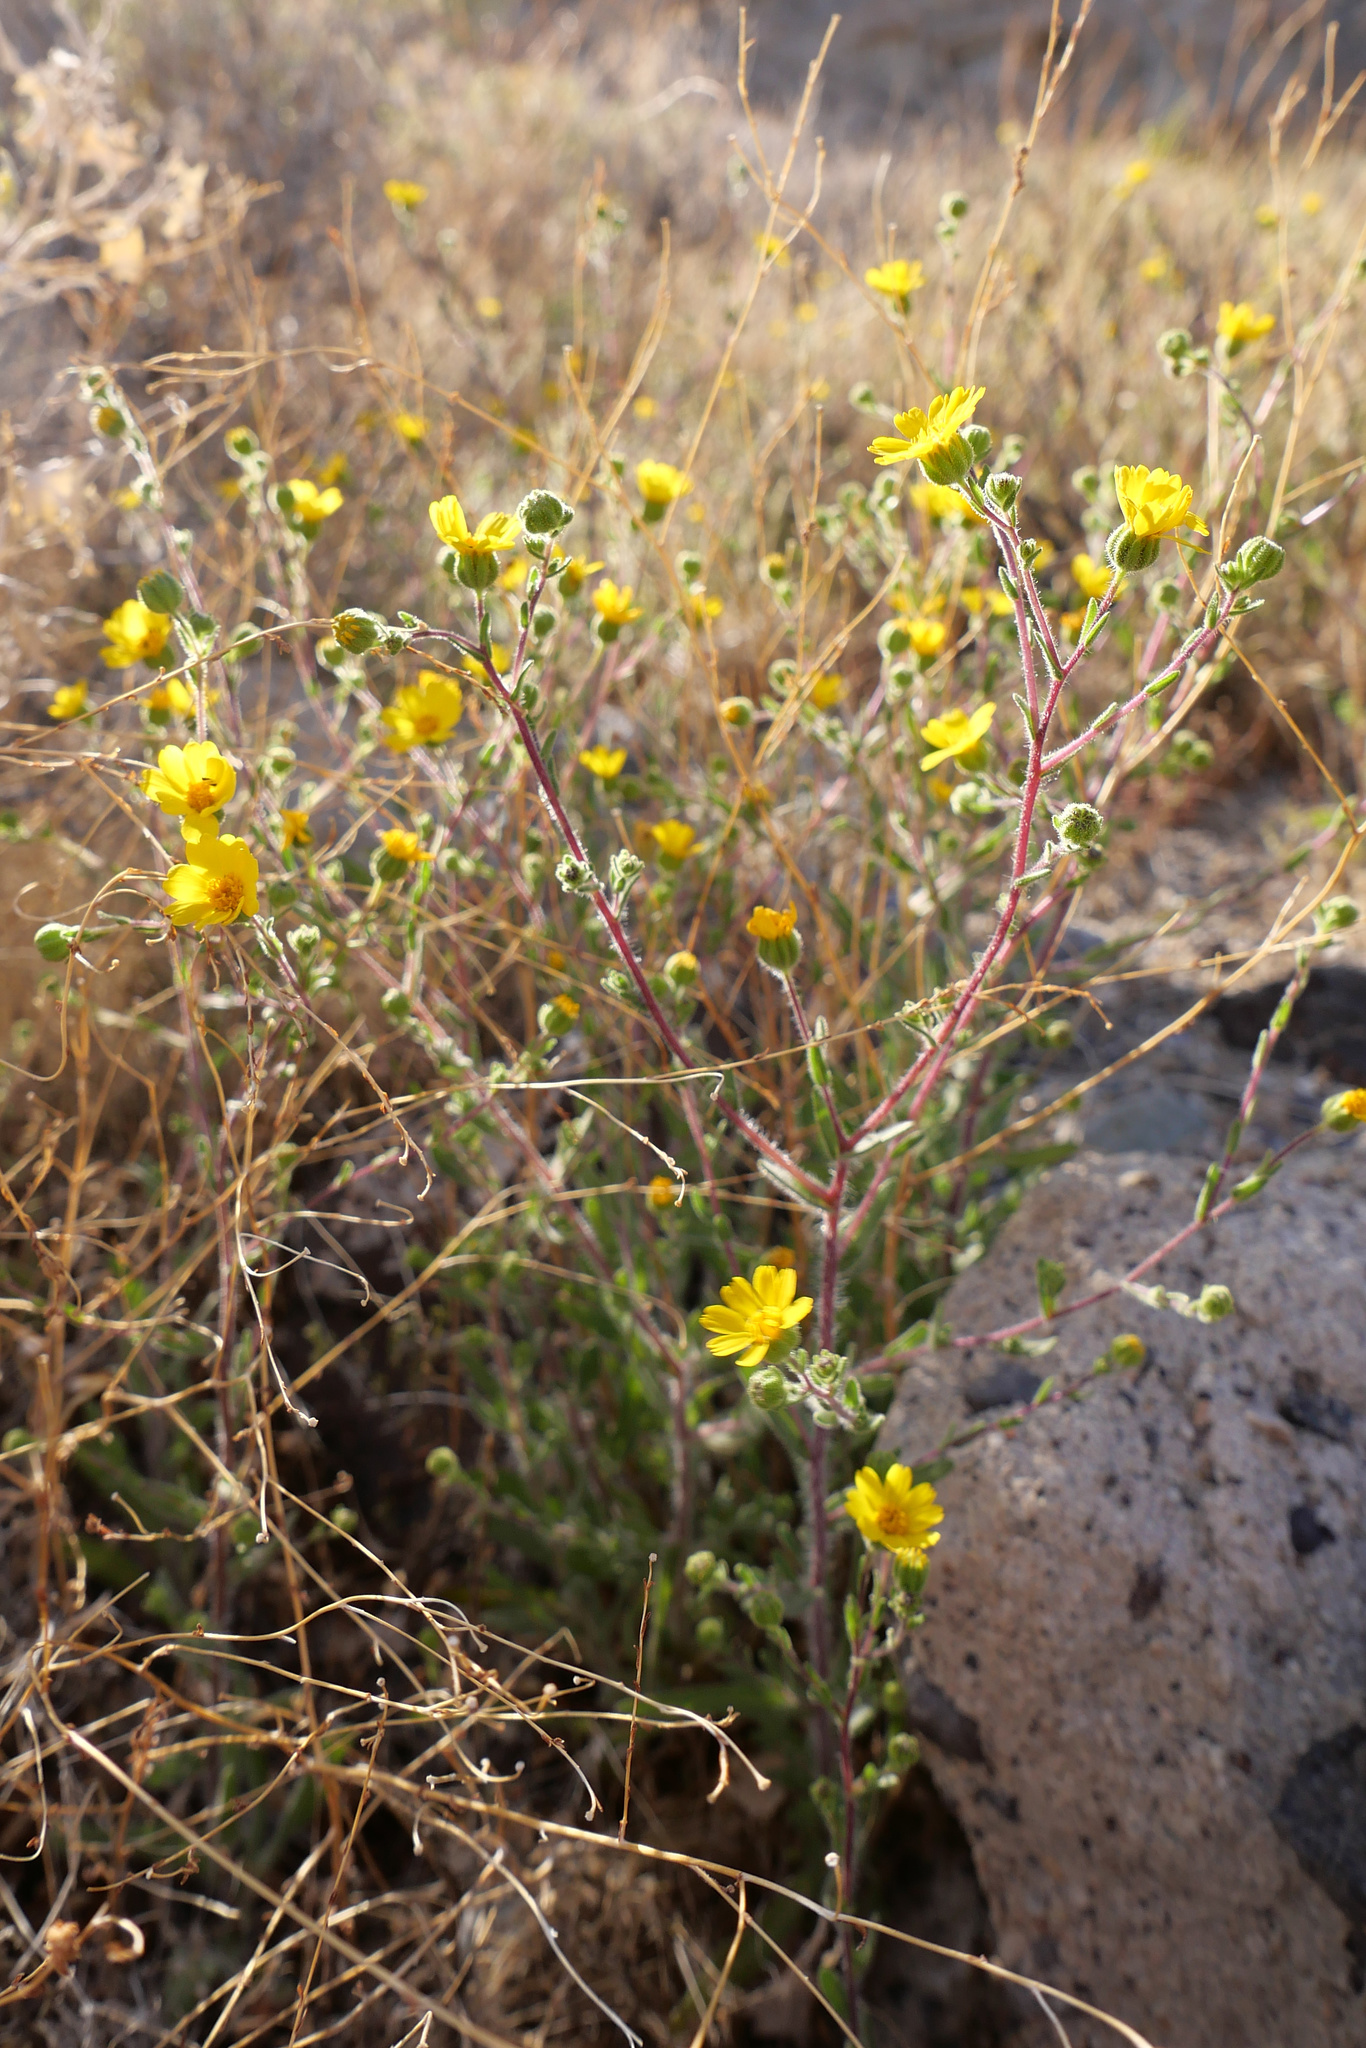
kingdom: Plantae
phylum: Tracheophyta
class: Magnoliopsida
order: Asterales
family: Asteraceae
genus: Deinandra
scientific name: Deinandra arida
